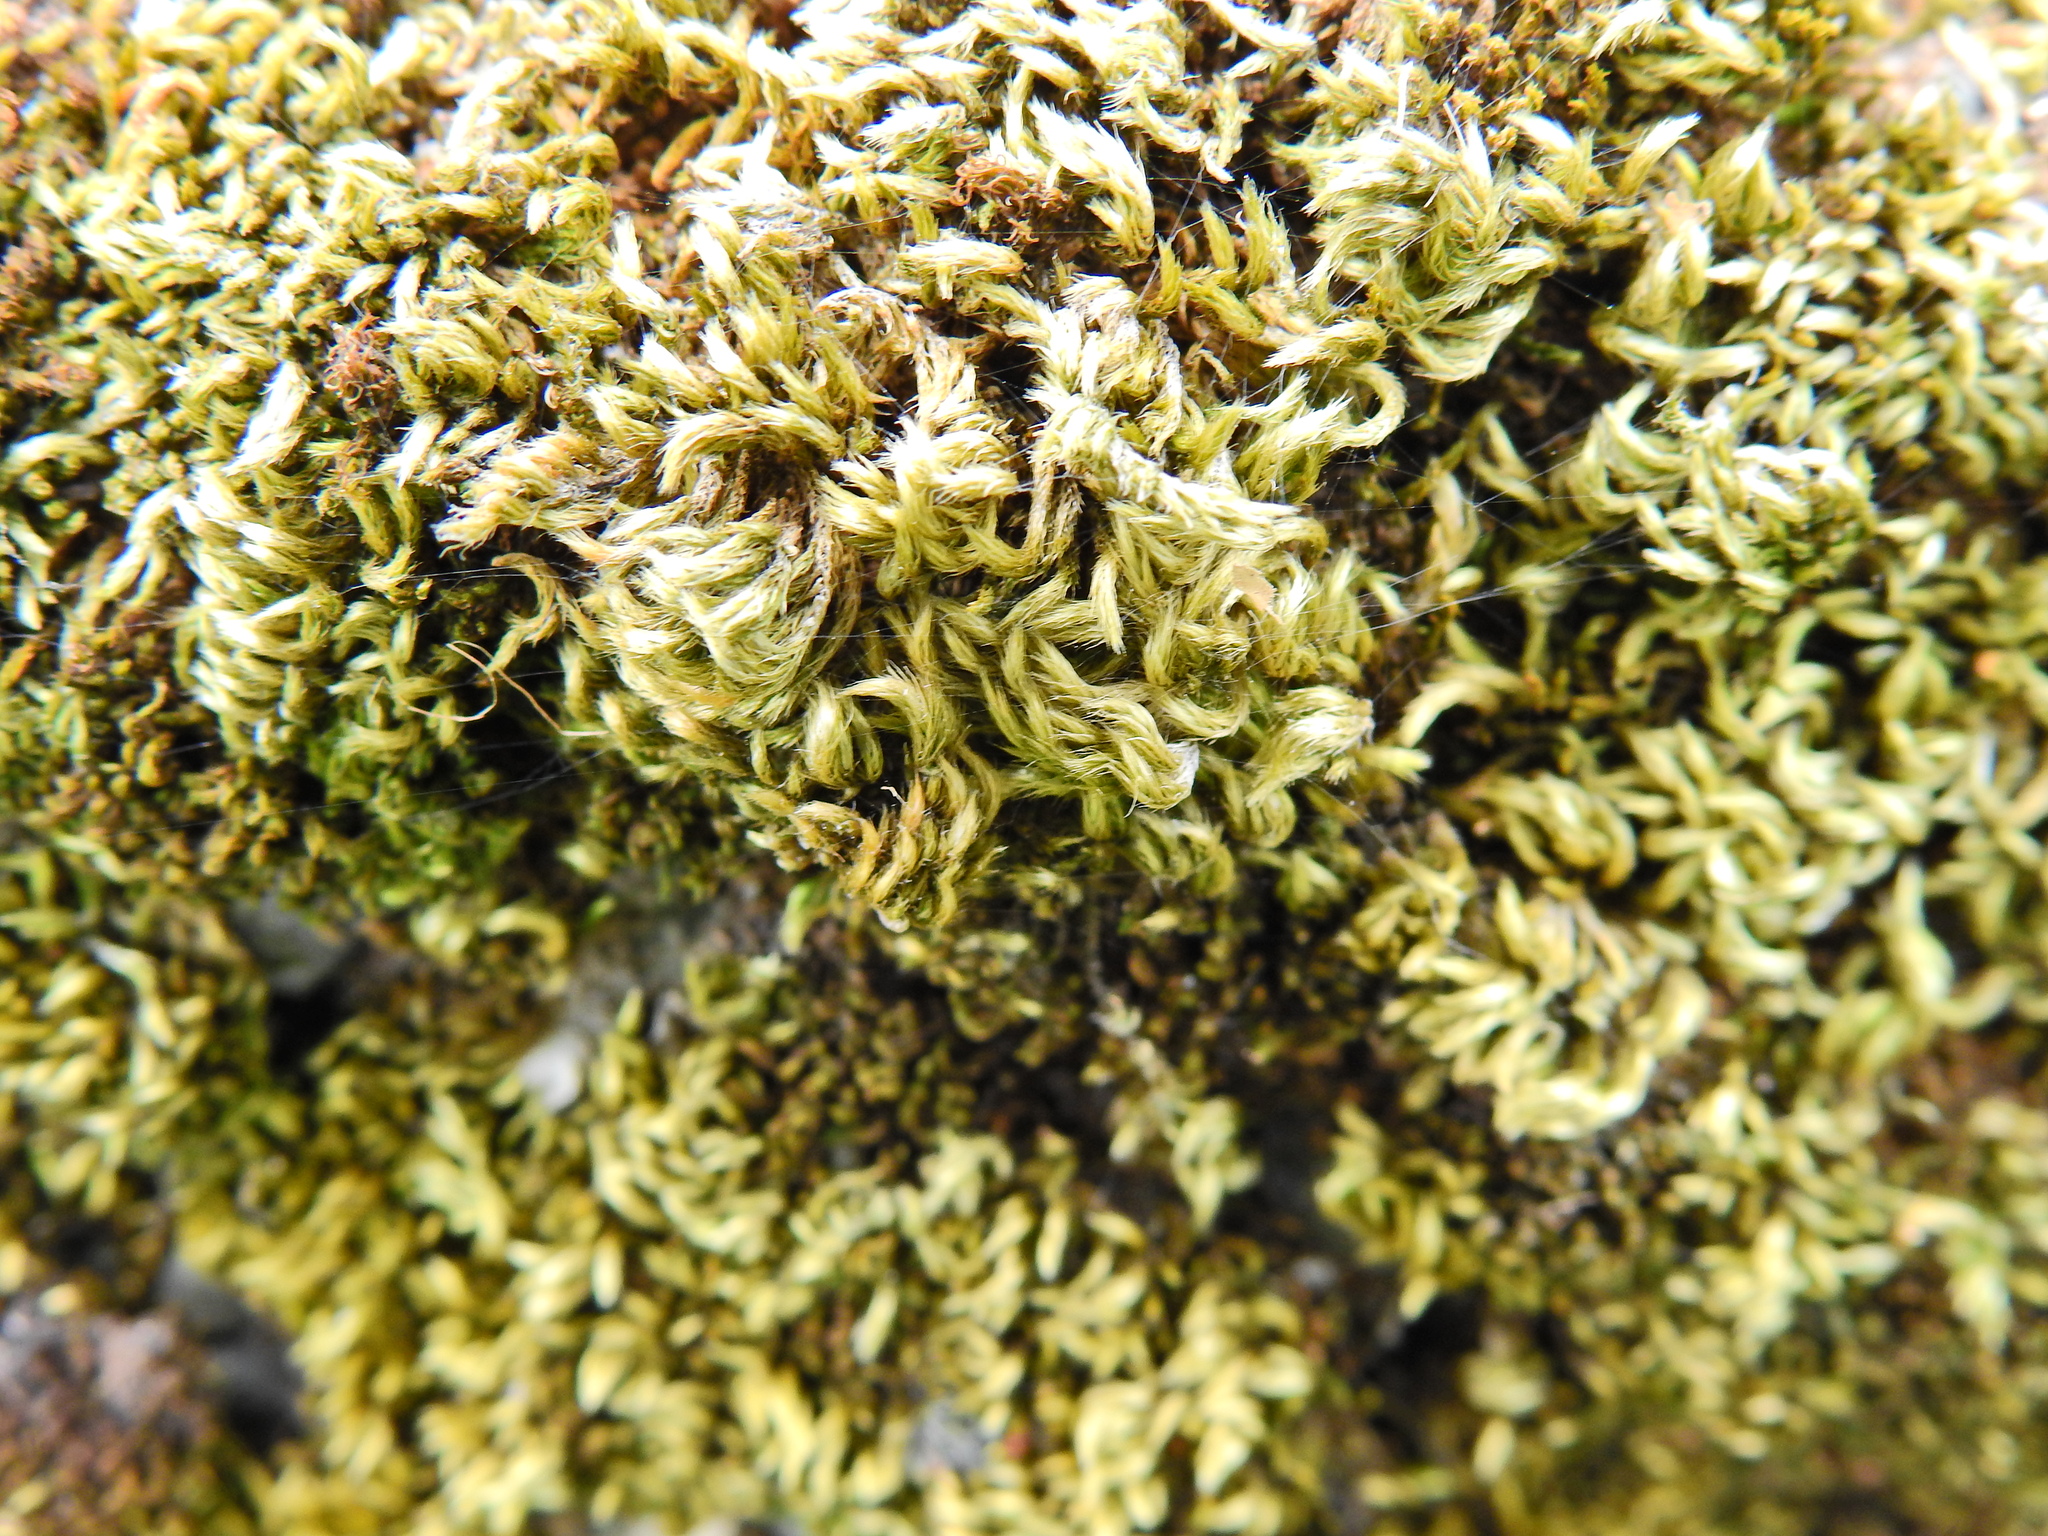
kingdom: Plantae
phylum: Bryophyta
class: Bryopsida
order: Hypnales
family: Brachytheciaceae
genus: Homalothecium
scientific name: Homalothecium sericeum
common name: Silky wall feather-moss
